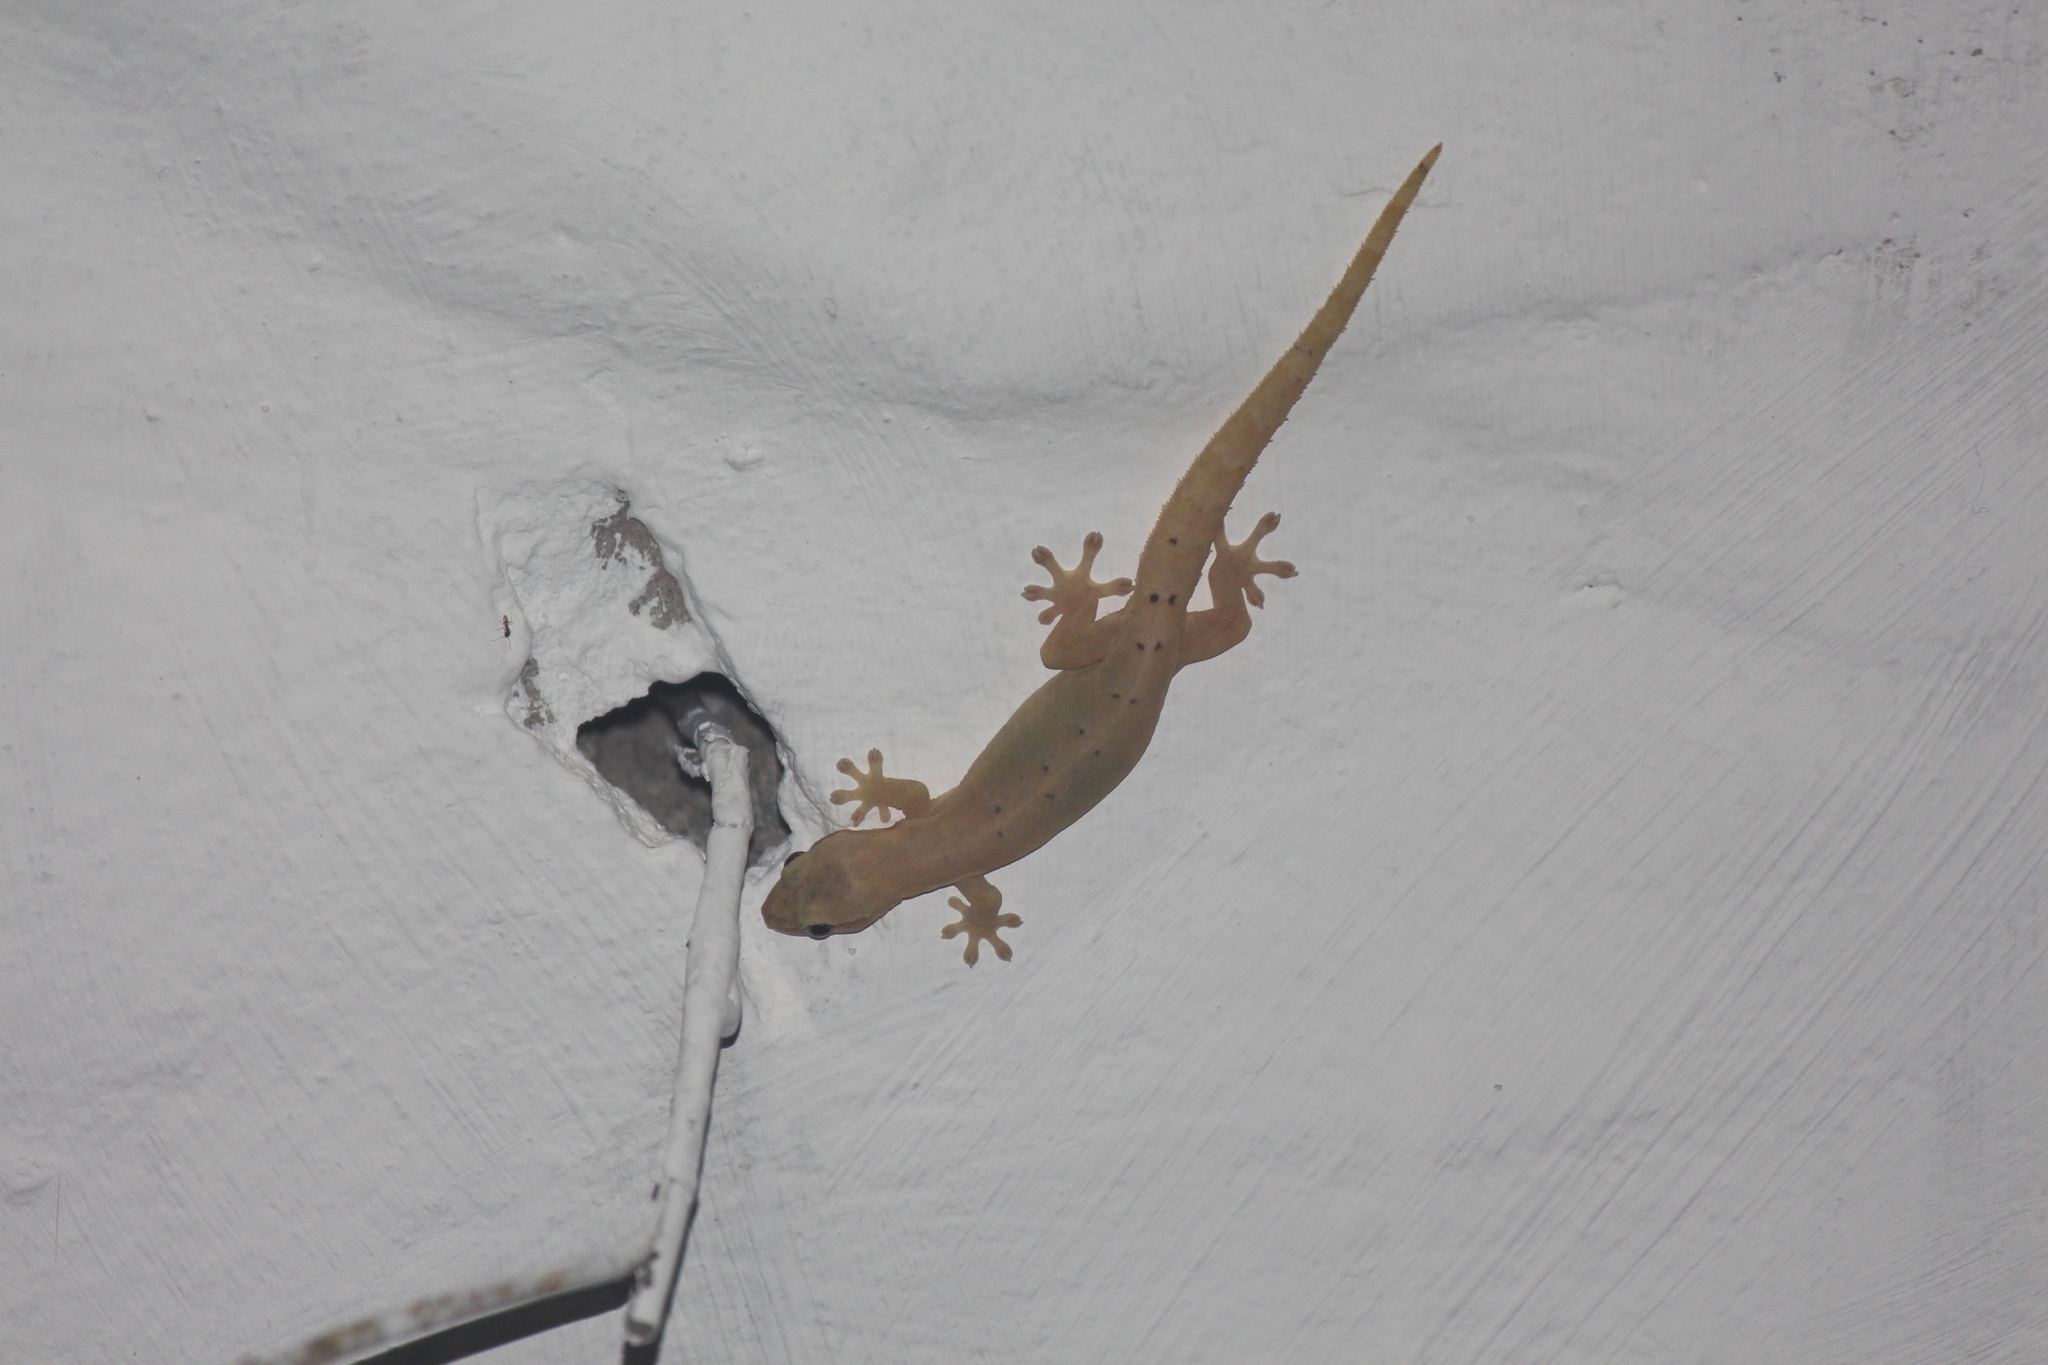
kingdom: Animalia
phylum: Chordata
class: Squamata
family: Gekkonidae
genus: Lepidodactylus
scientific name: Lepidodactylus lugubris
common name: Mourning gecko
